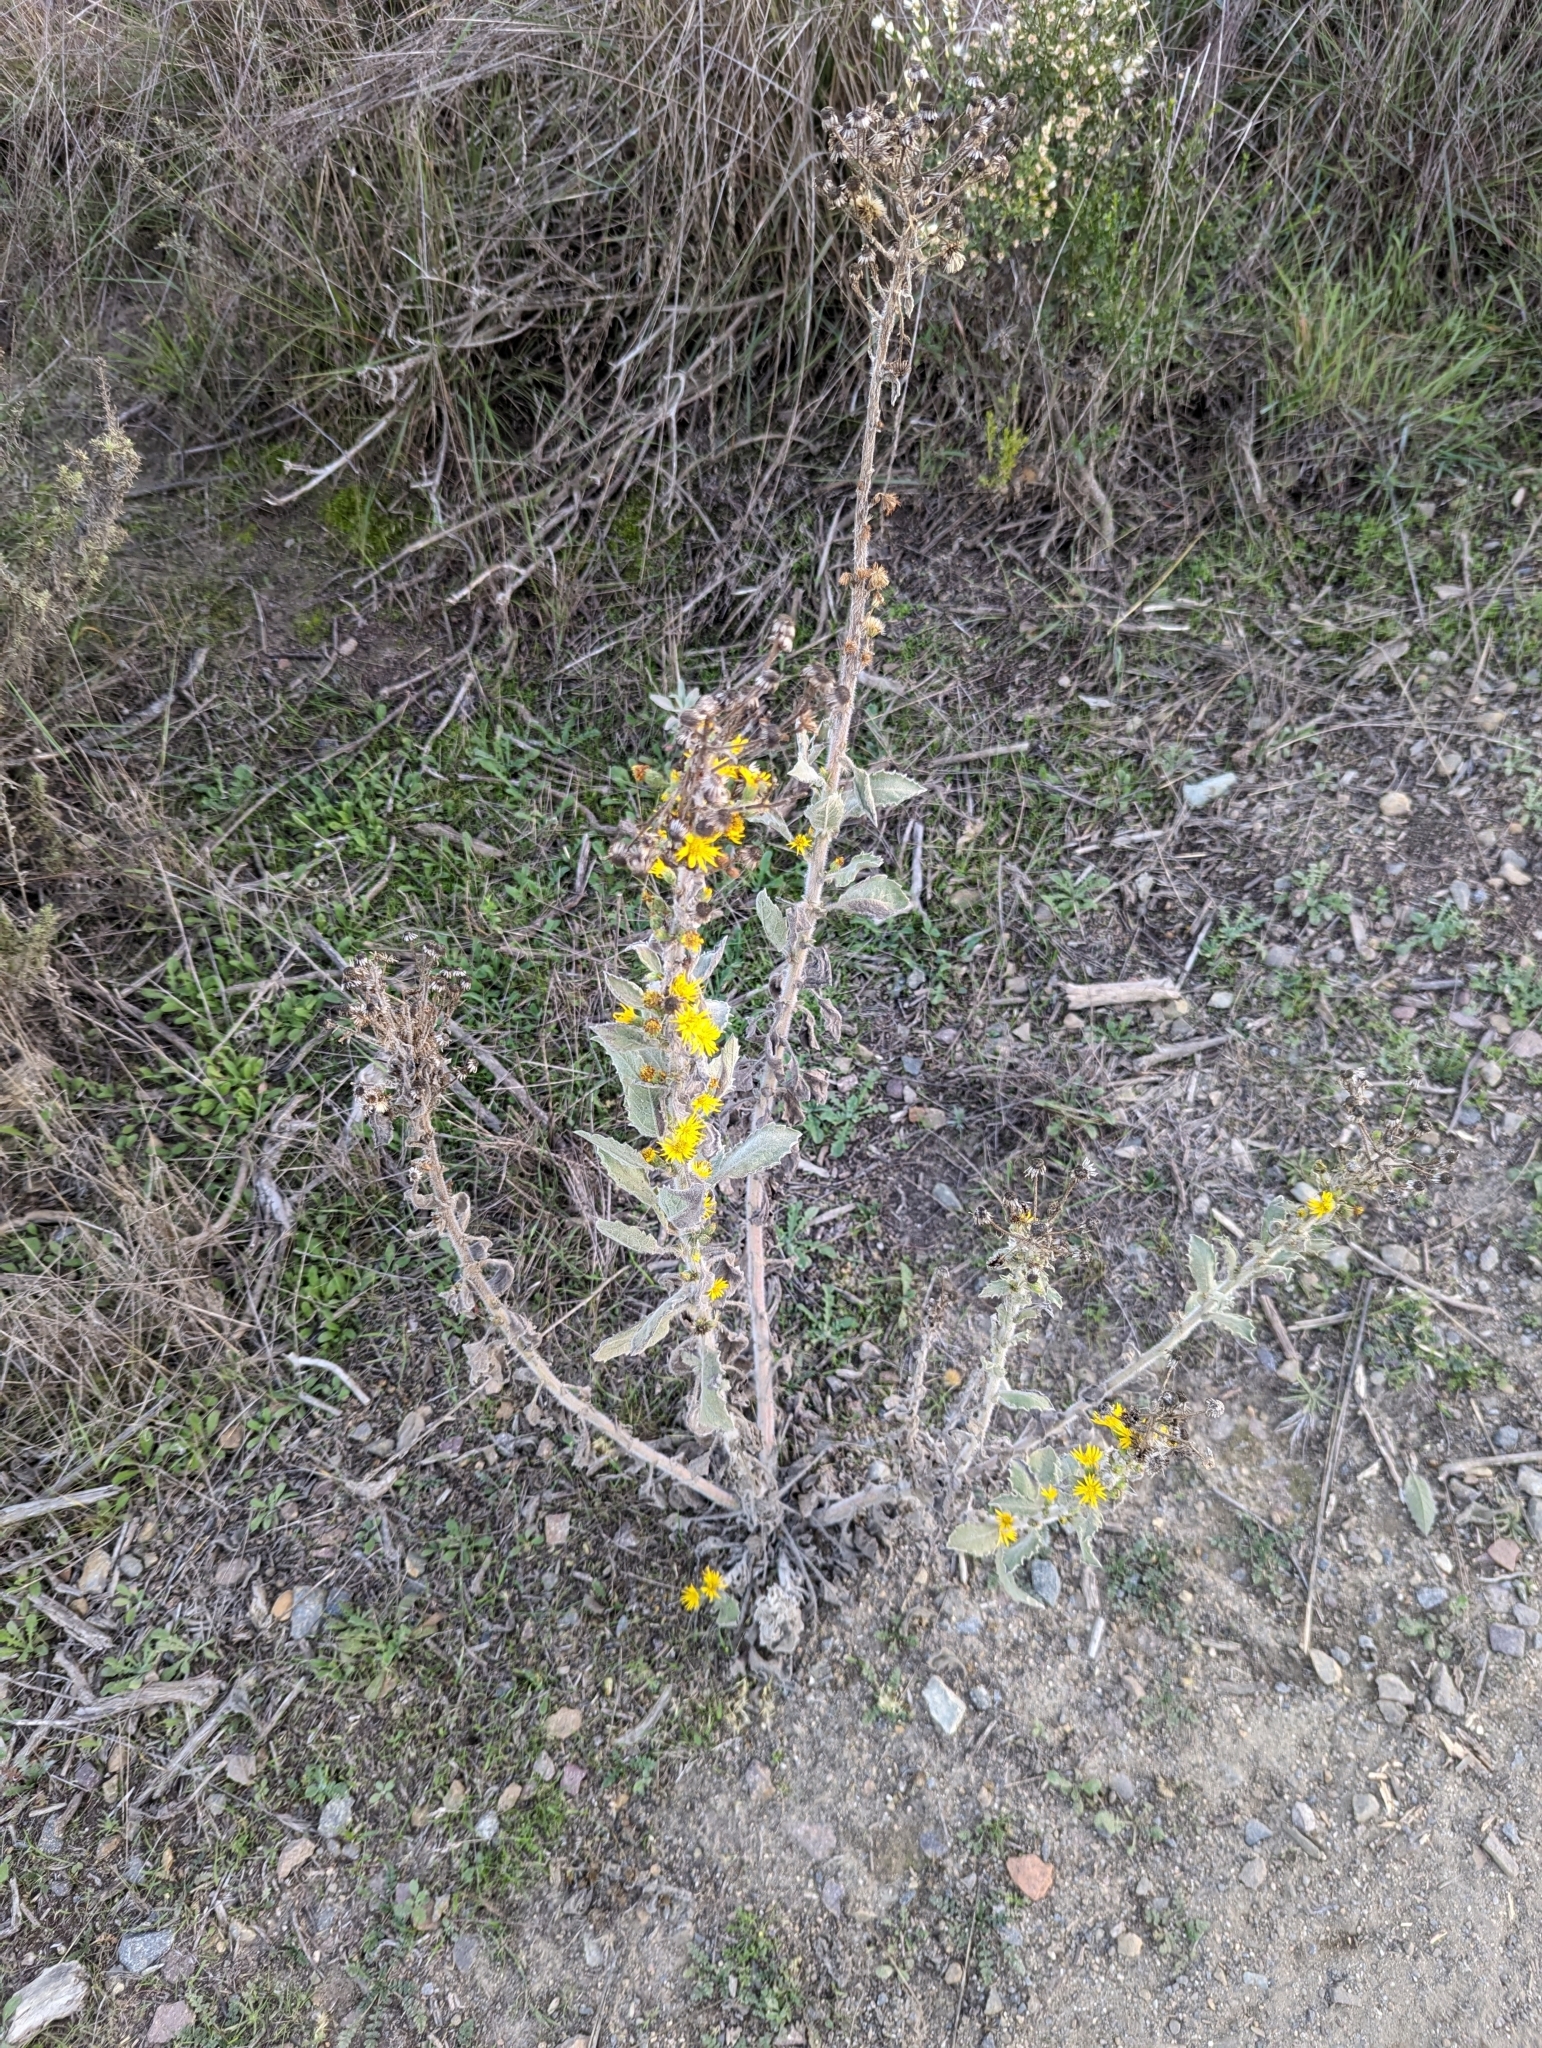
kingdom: Plantae
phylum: Tracheophyta
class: Magnoliopsida
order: Asterales
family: Asteraceae
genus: Heterotheca
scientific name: Heterotheca grandiflora
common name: Telegraphweed
